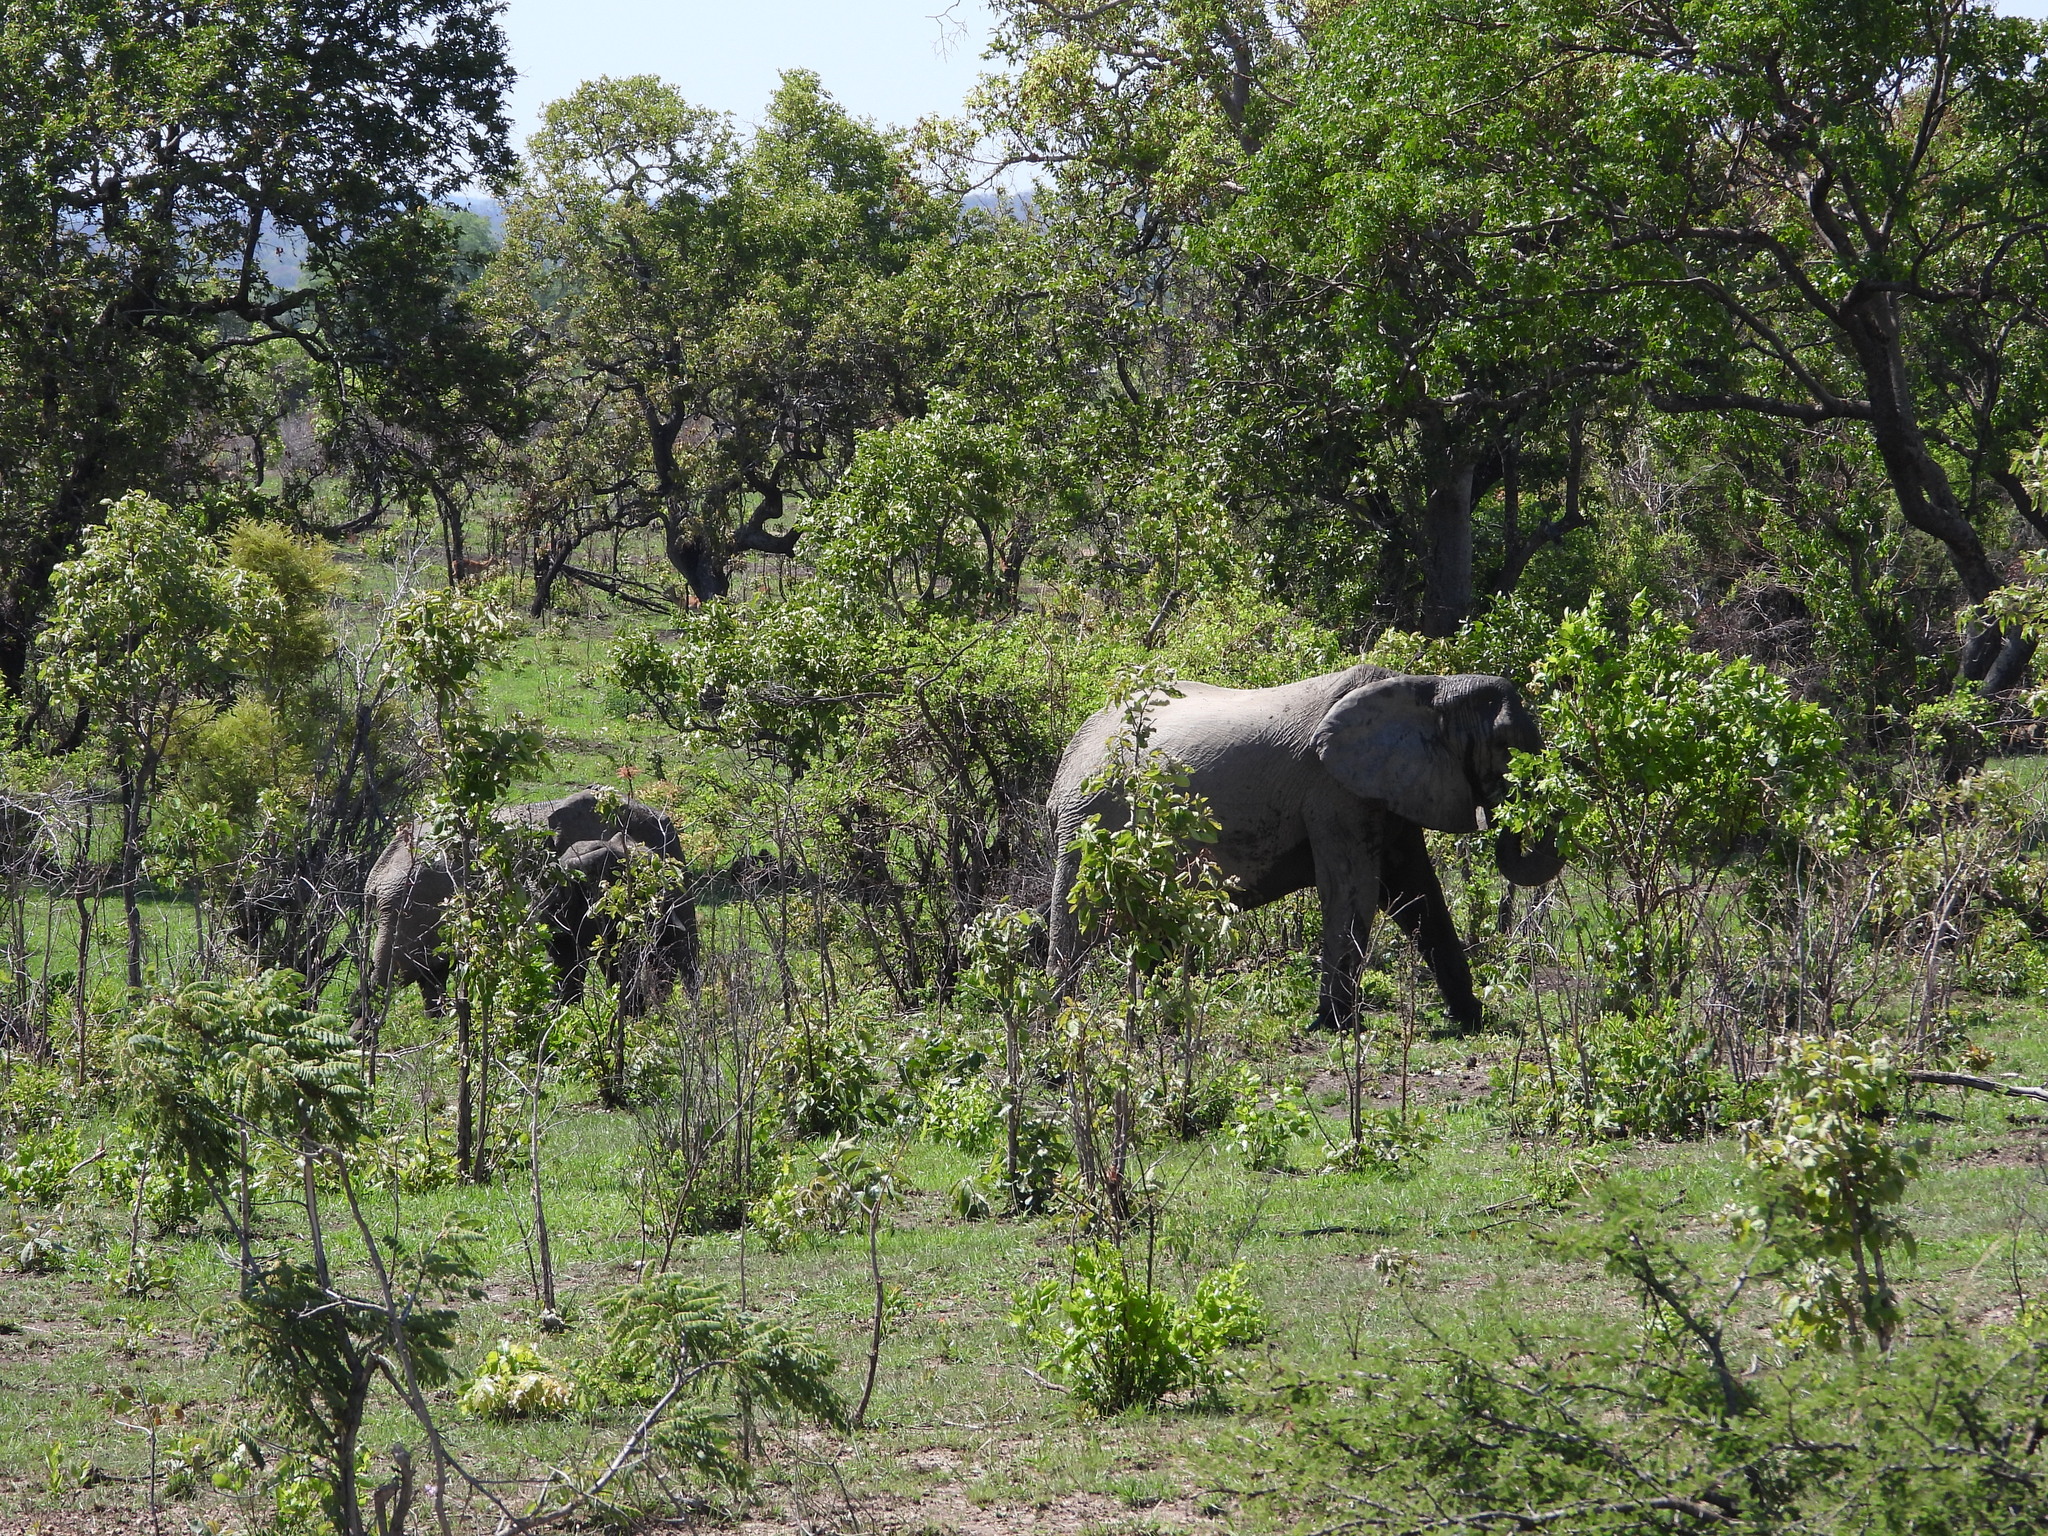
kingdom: Animalia
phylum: Chordata
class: Mammalia
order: Proboscidea
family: Elephantidae
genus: Loxodonta
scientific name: Loxodonta africana
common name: African elephant
